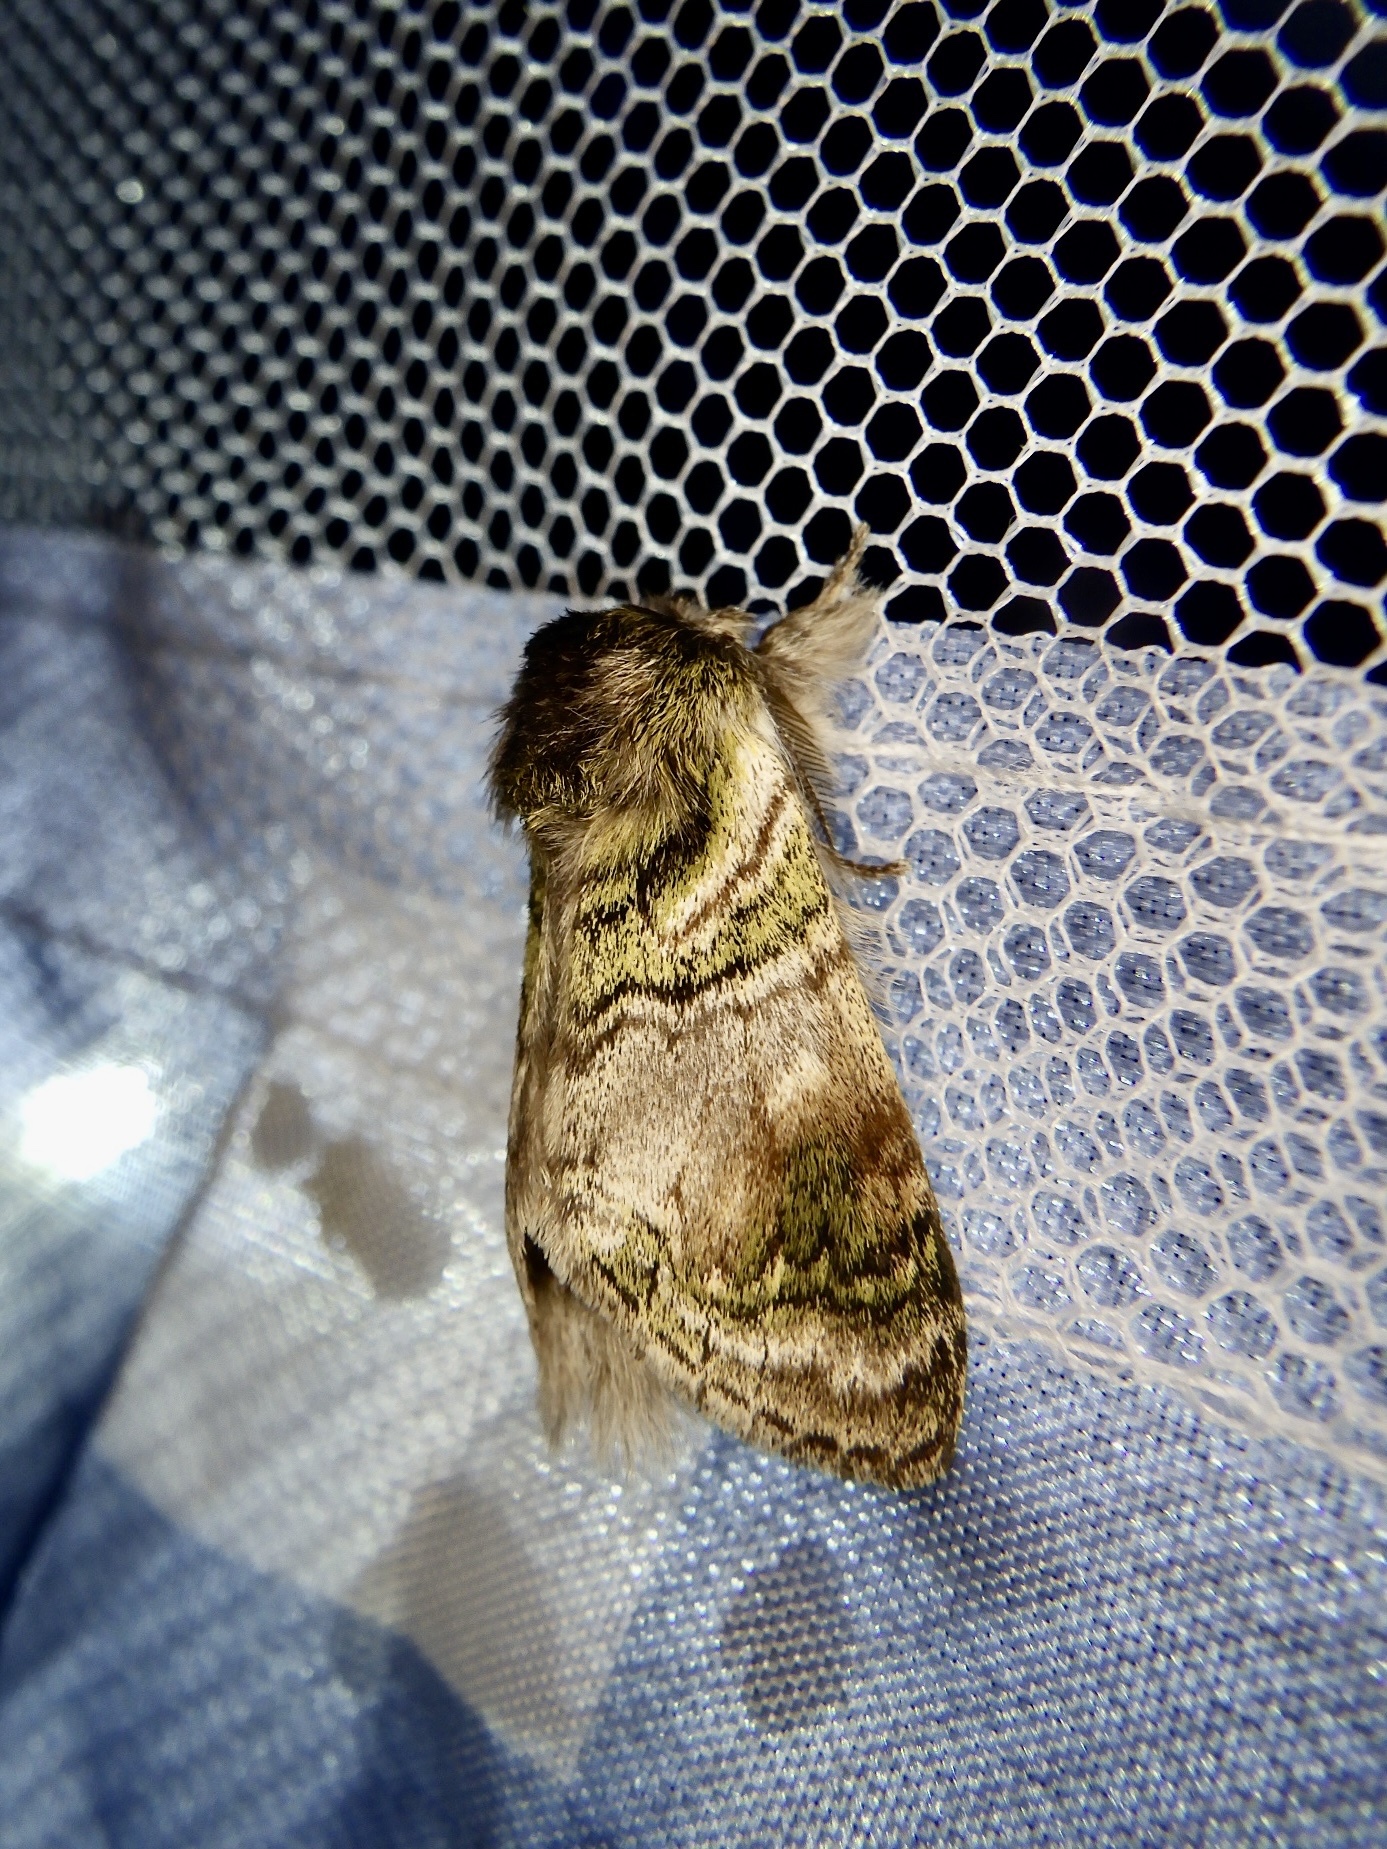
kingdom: Animalia
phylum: Arthropoda
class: Insecta
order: Lepidoptera
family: Notodontidae
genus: Shachia
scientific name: Shachia circumscripta
